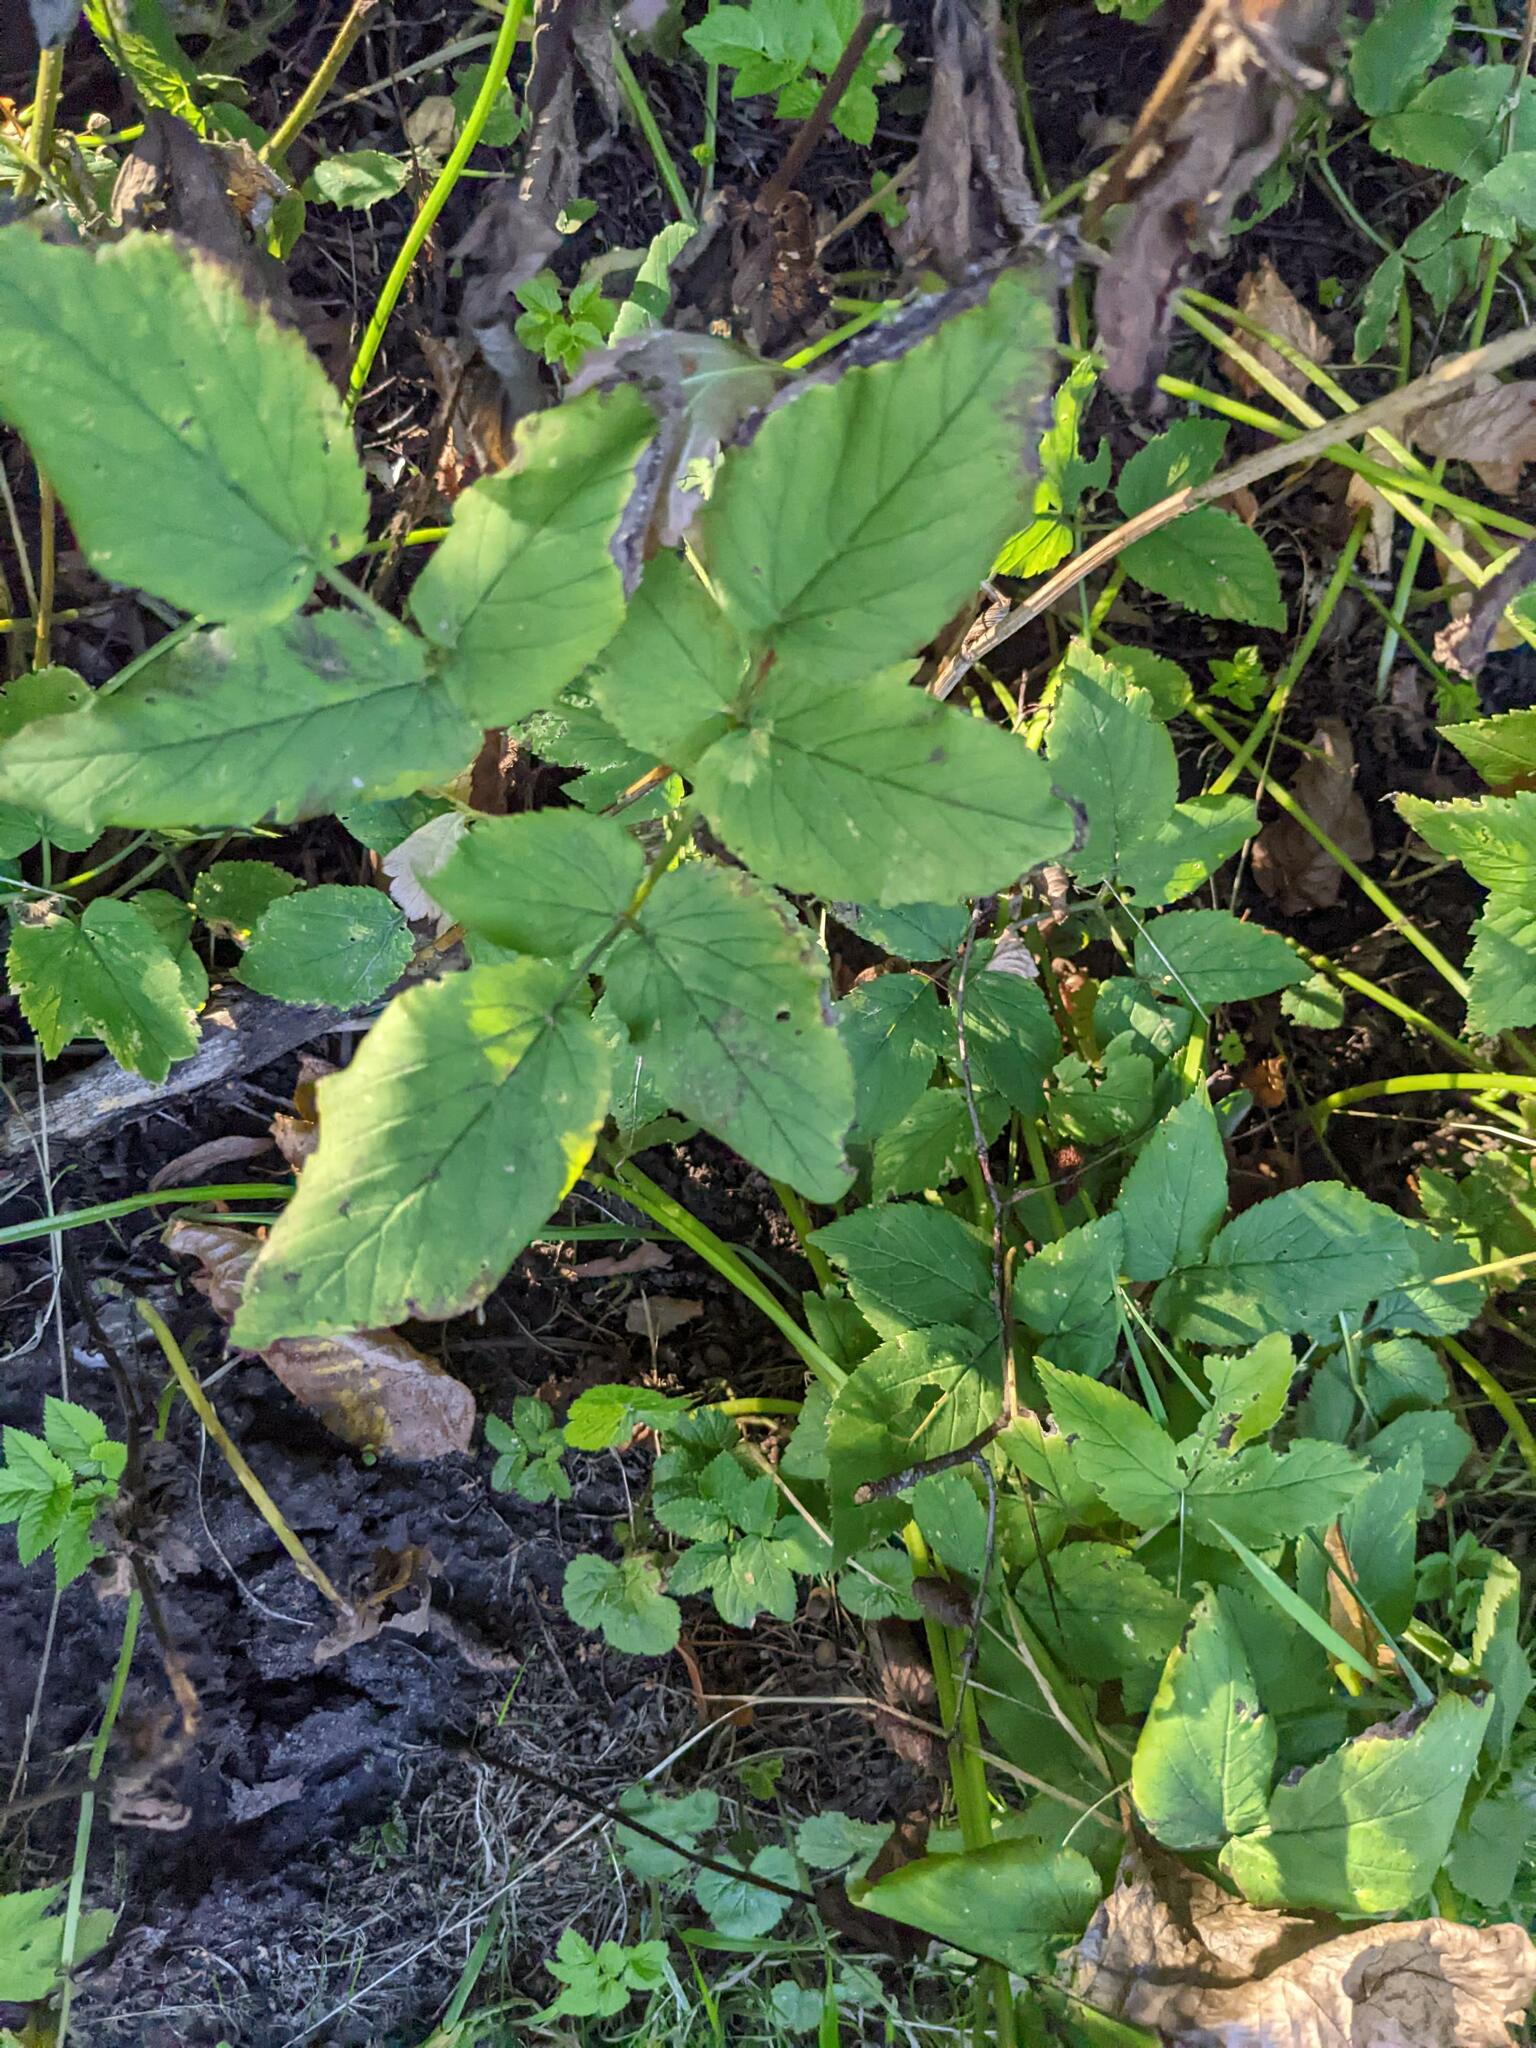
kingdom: Plantae
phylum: Tracheophyta
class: Magnoliopsida
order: Apiales
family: Apiaceae
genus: Aegopodium
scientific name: Aegopodium podagraria
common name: Ground-elder
